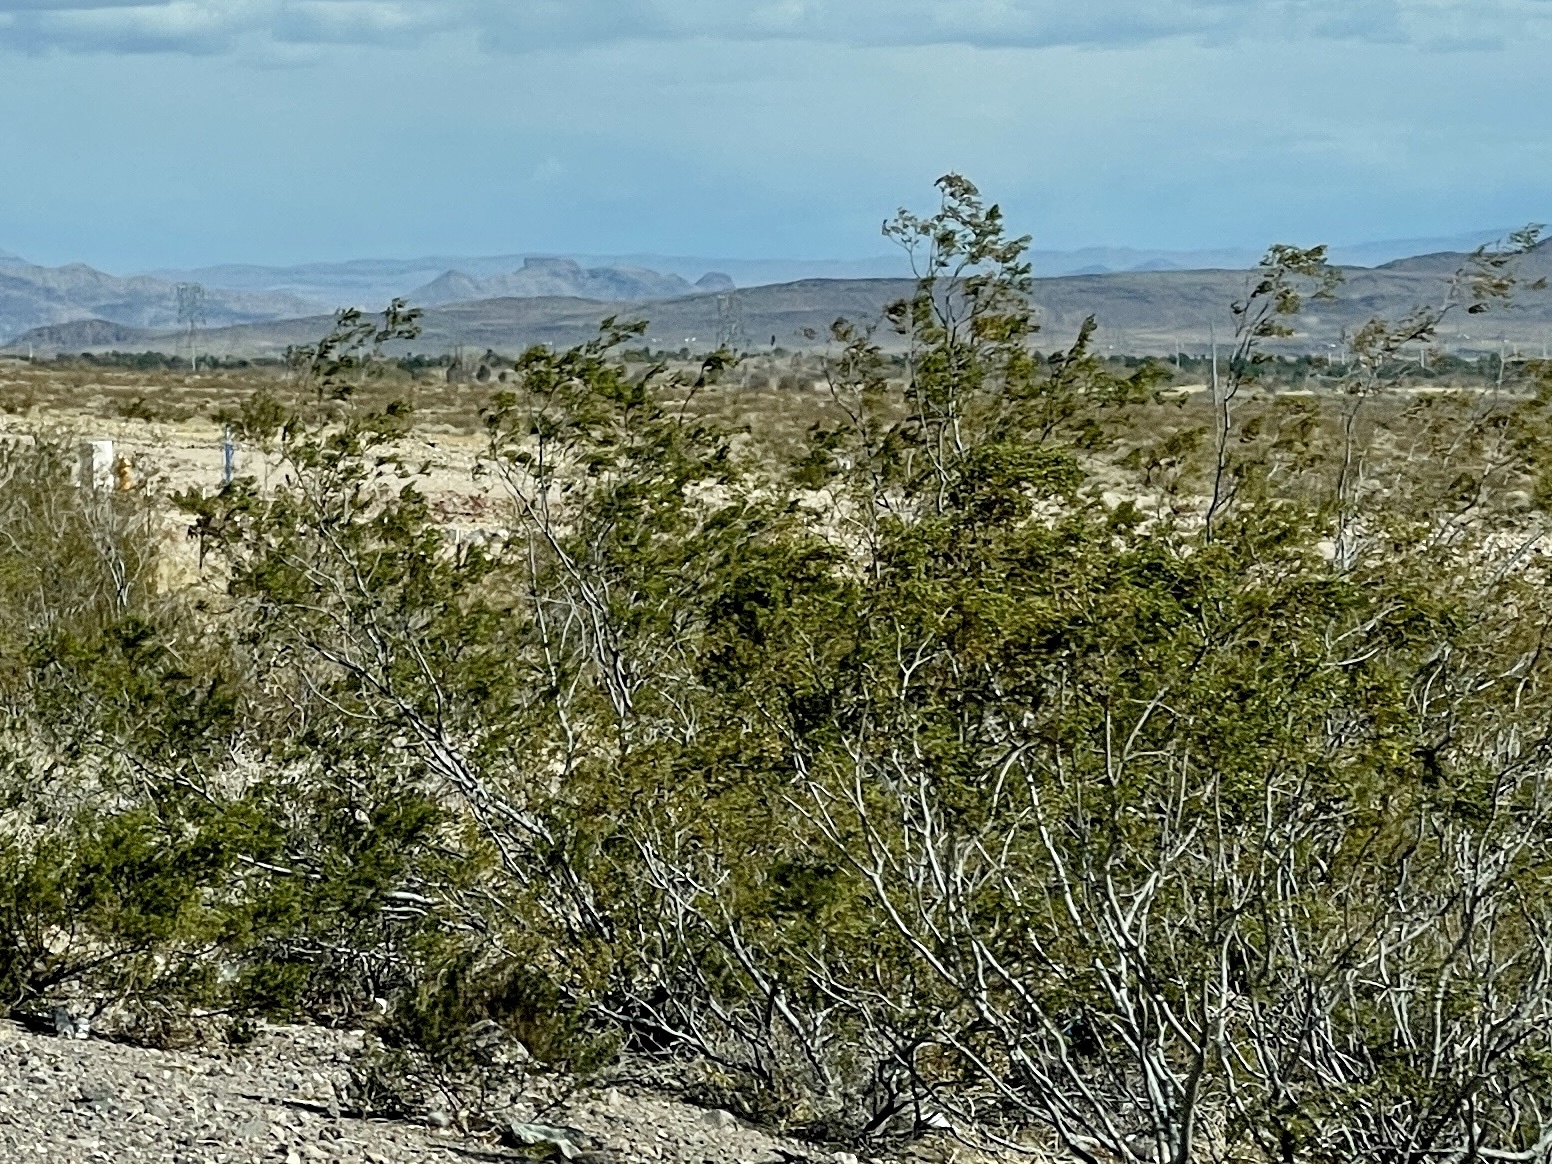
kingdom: Plantae
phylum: Tracheophyta
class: Magnoliopsida
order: Zygophyllales
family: Zygophyllaceae
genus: Larrea
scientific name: Larrea tridentata
